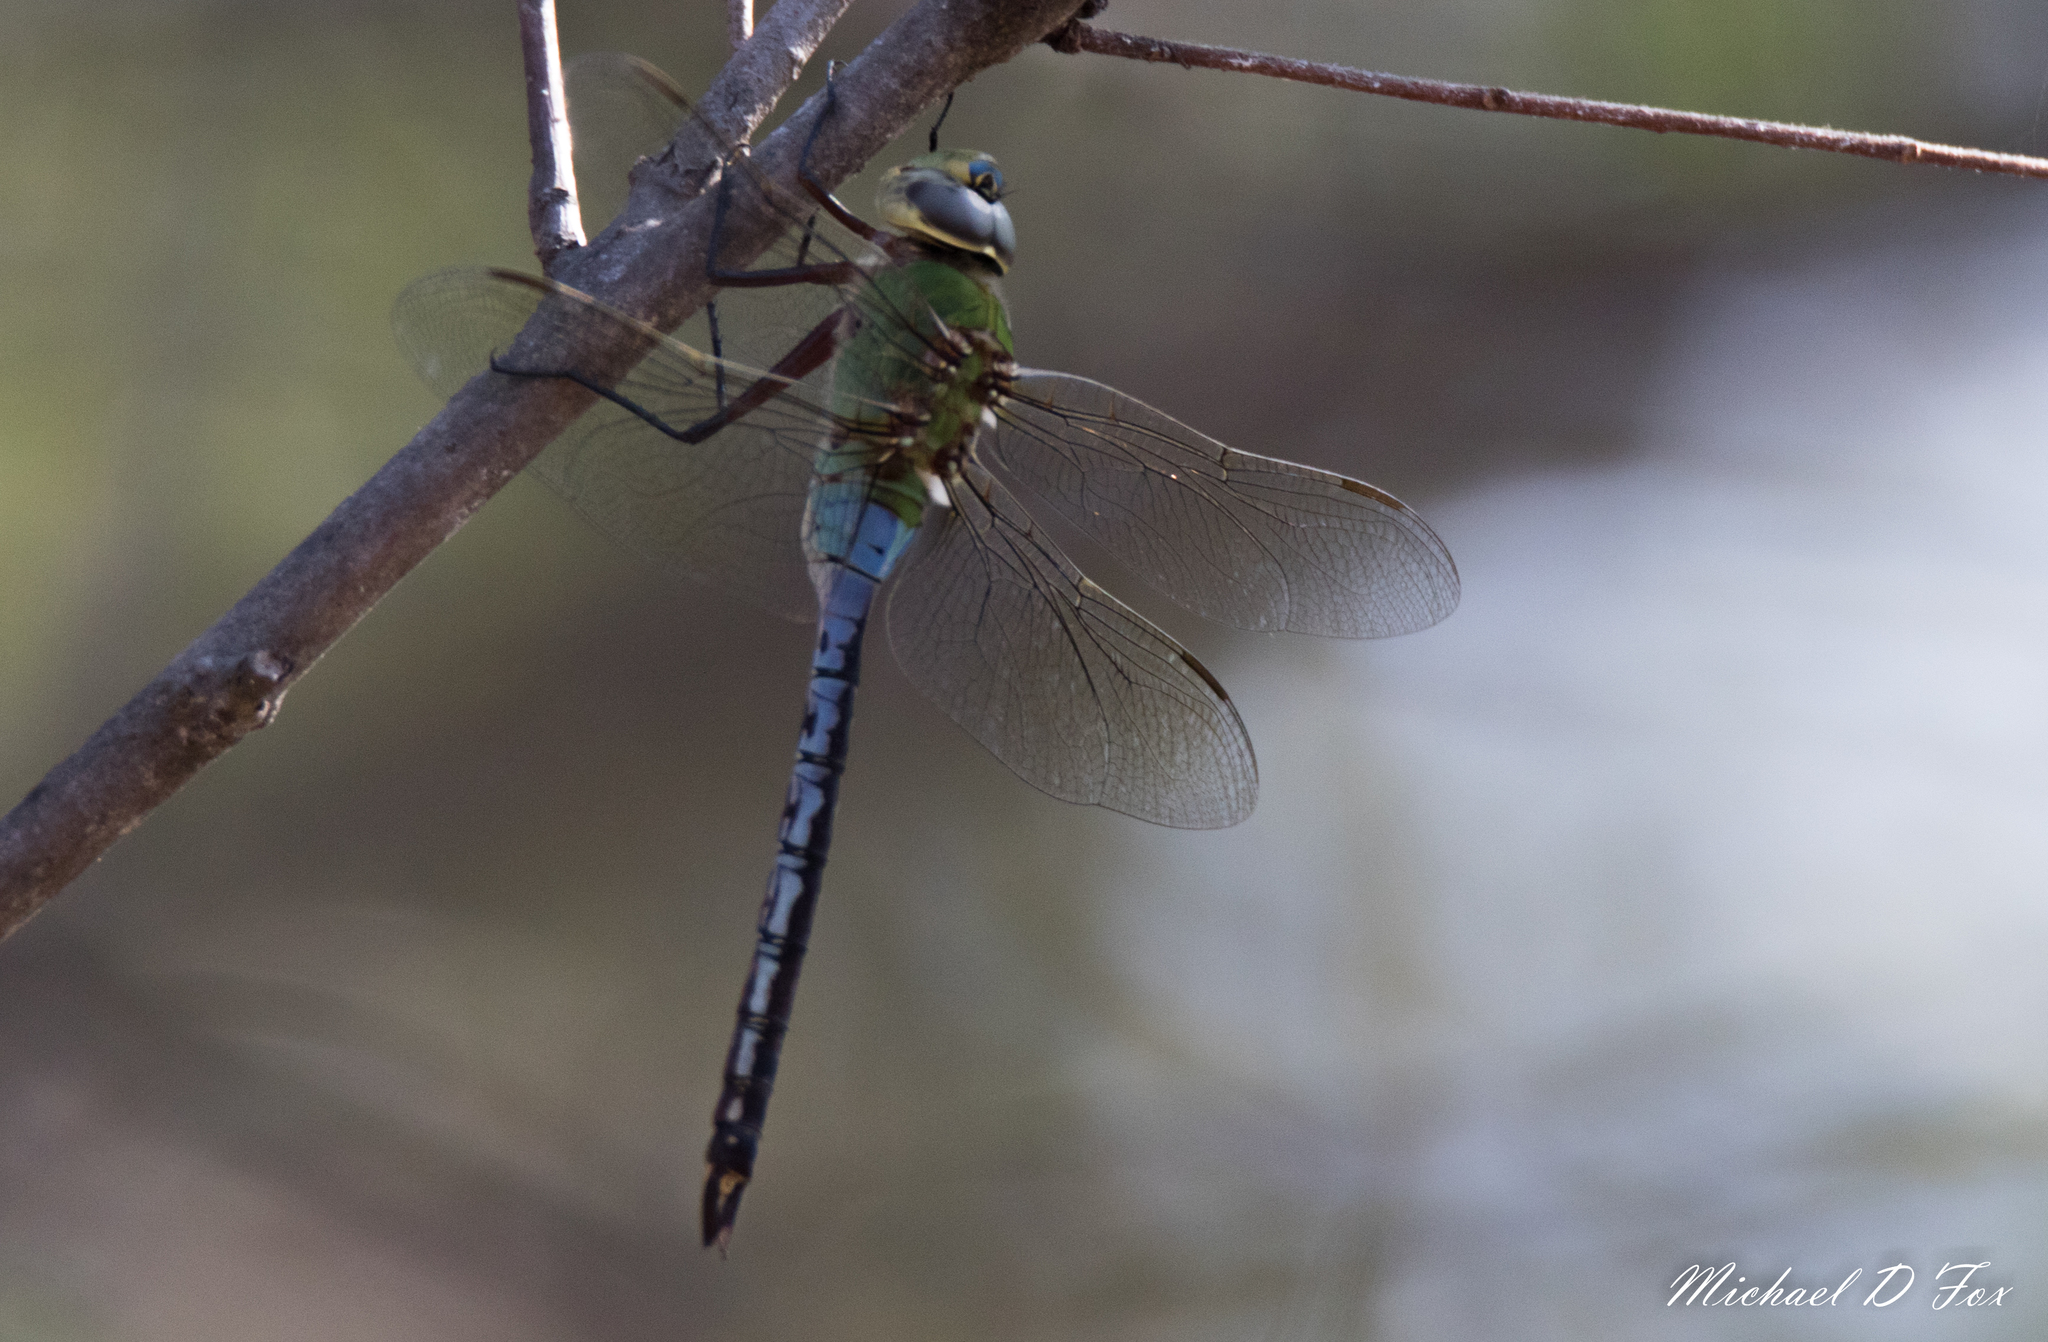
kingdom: Animalia
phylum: Arthropoda
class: Insecta
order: Odonata
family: Aeshnidae
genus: Anax
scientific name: Anax junius
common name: Common green darner
